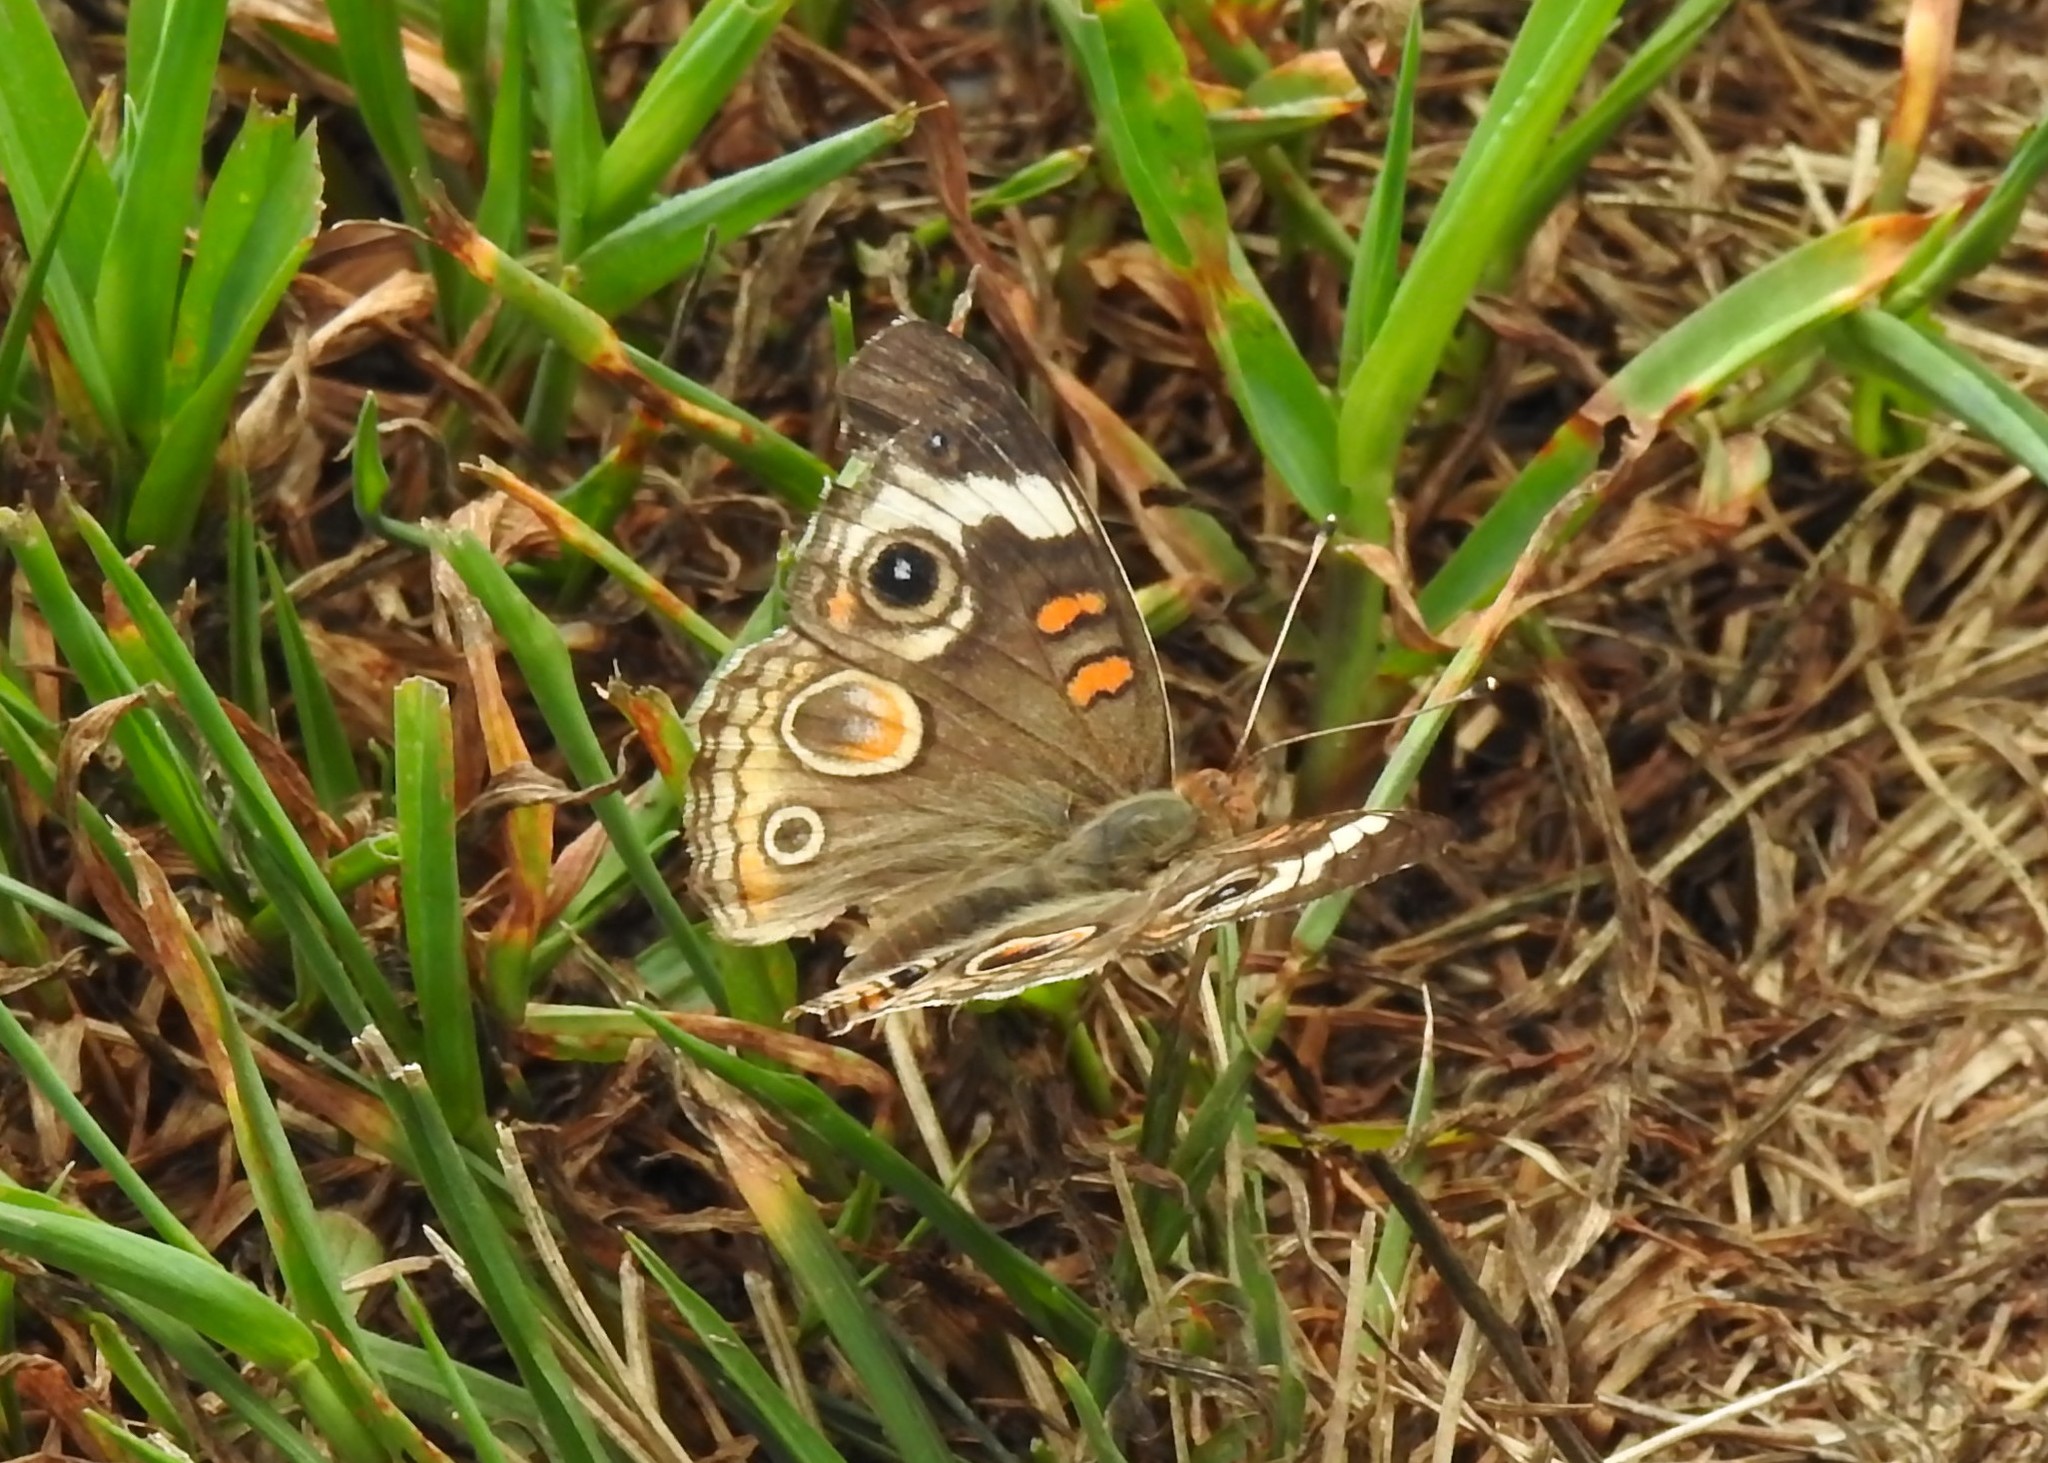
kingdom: Animalia
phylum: Arthropoda
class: Insecta
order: Lepidoptera
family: Nymphalidae
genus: Junonia
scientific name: Junonia coenia
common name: Common buckeye
